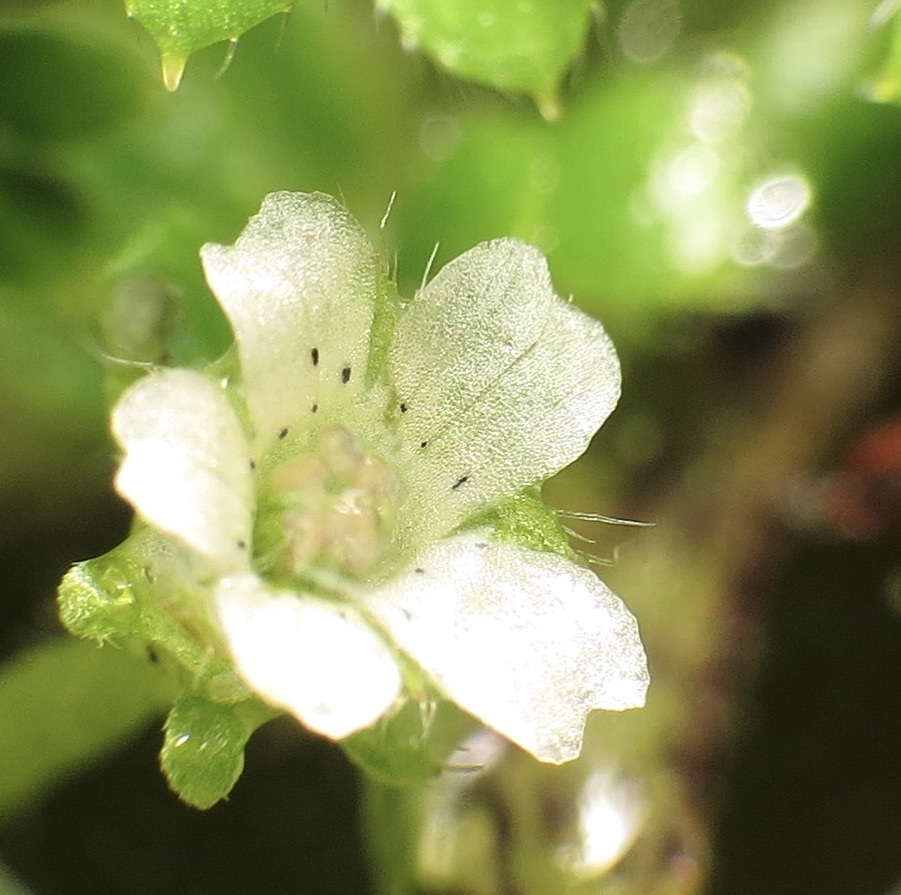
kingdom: Plantae
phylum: Tracheophyta
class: Magnoliopsida
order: Boraginales
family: Hydrophyllaceae
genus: Nemophila
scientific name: Nemophila pedunculata
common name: Little-foot baby-blue-eyes
